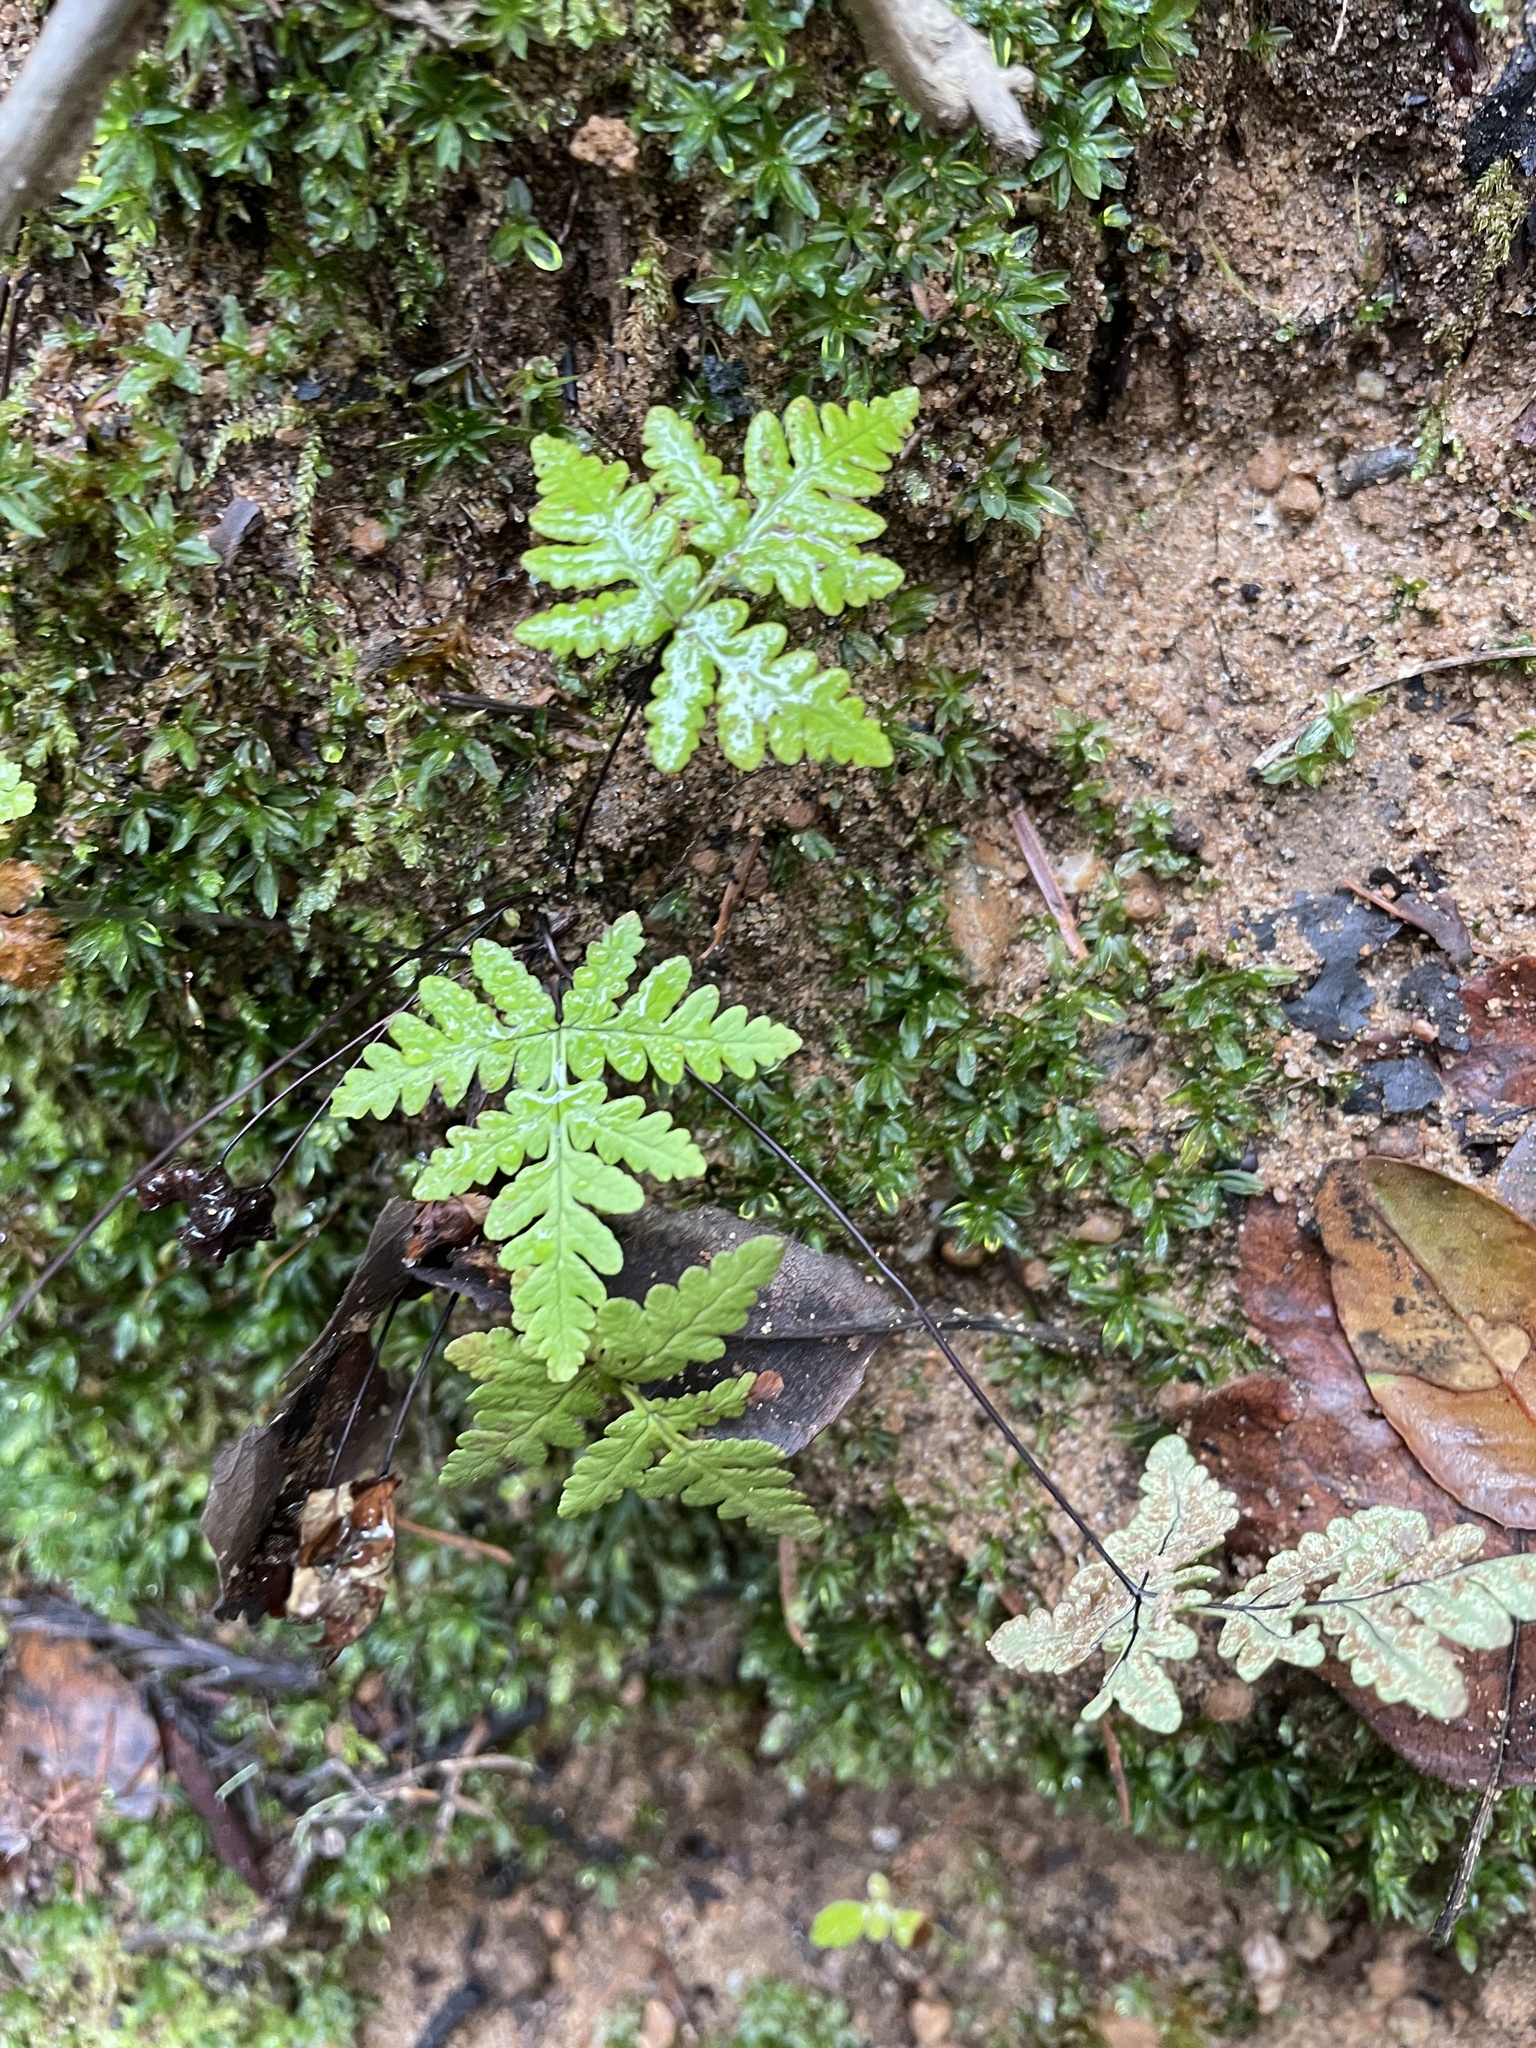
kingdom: Plantae
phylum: Tracheophyta
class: Polypodiopsida
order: Polypodiales
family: Pteridaceae
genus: Pentagramma
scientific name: Pentagramma triangularis
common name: Gold fern
